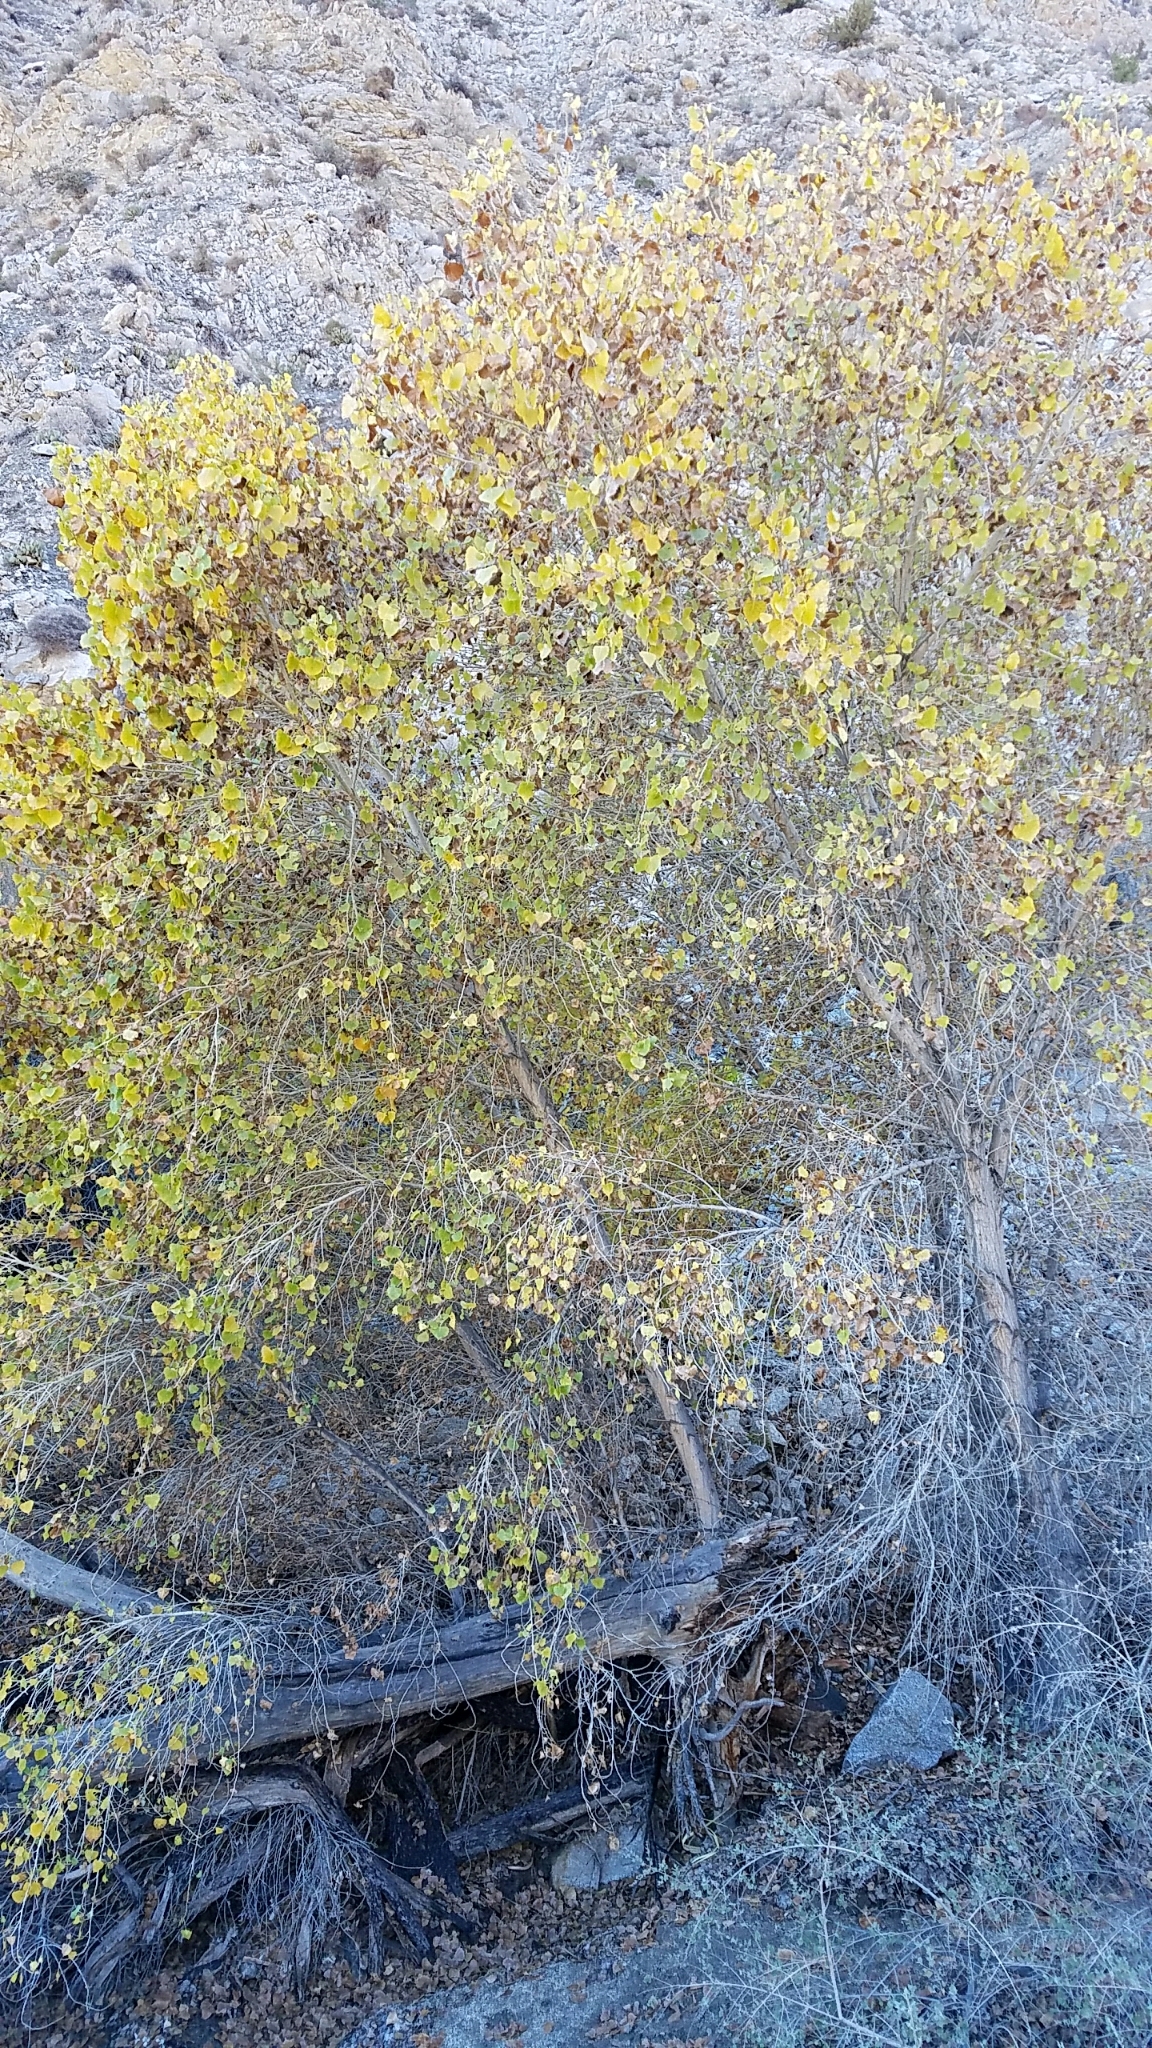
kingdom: Plantae
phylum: Tracheophyta
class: Magnoliopsida
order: Malpighiales
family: Salicaceae
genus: Populus
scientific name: Populus fremontii
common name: Fremont's cottonwood
